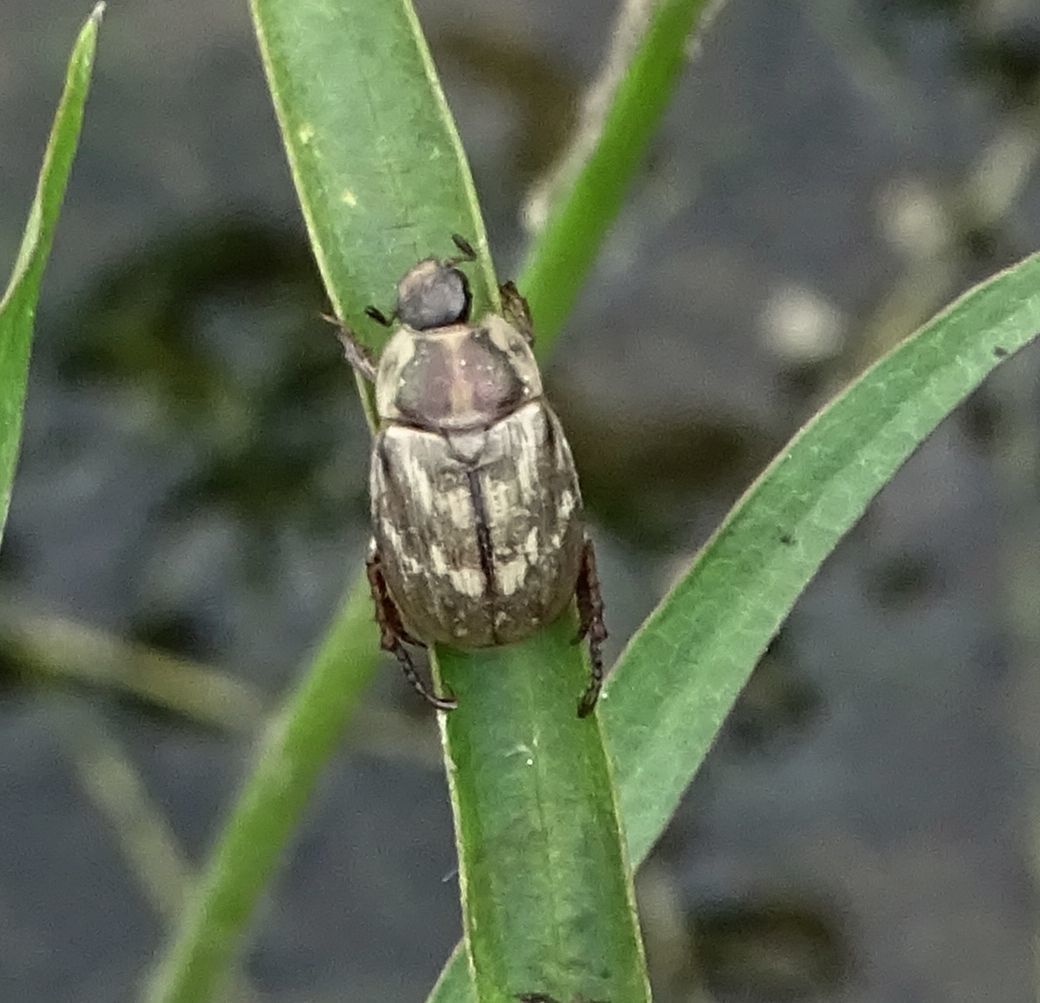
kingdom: Animalia
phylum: Arthropoda
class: Insecta
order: Coleoptera
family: Scarabaeidae
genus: Exomala
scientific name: Exomala orientalis
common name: Oriental beetle
